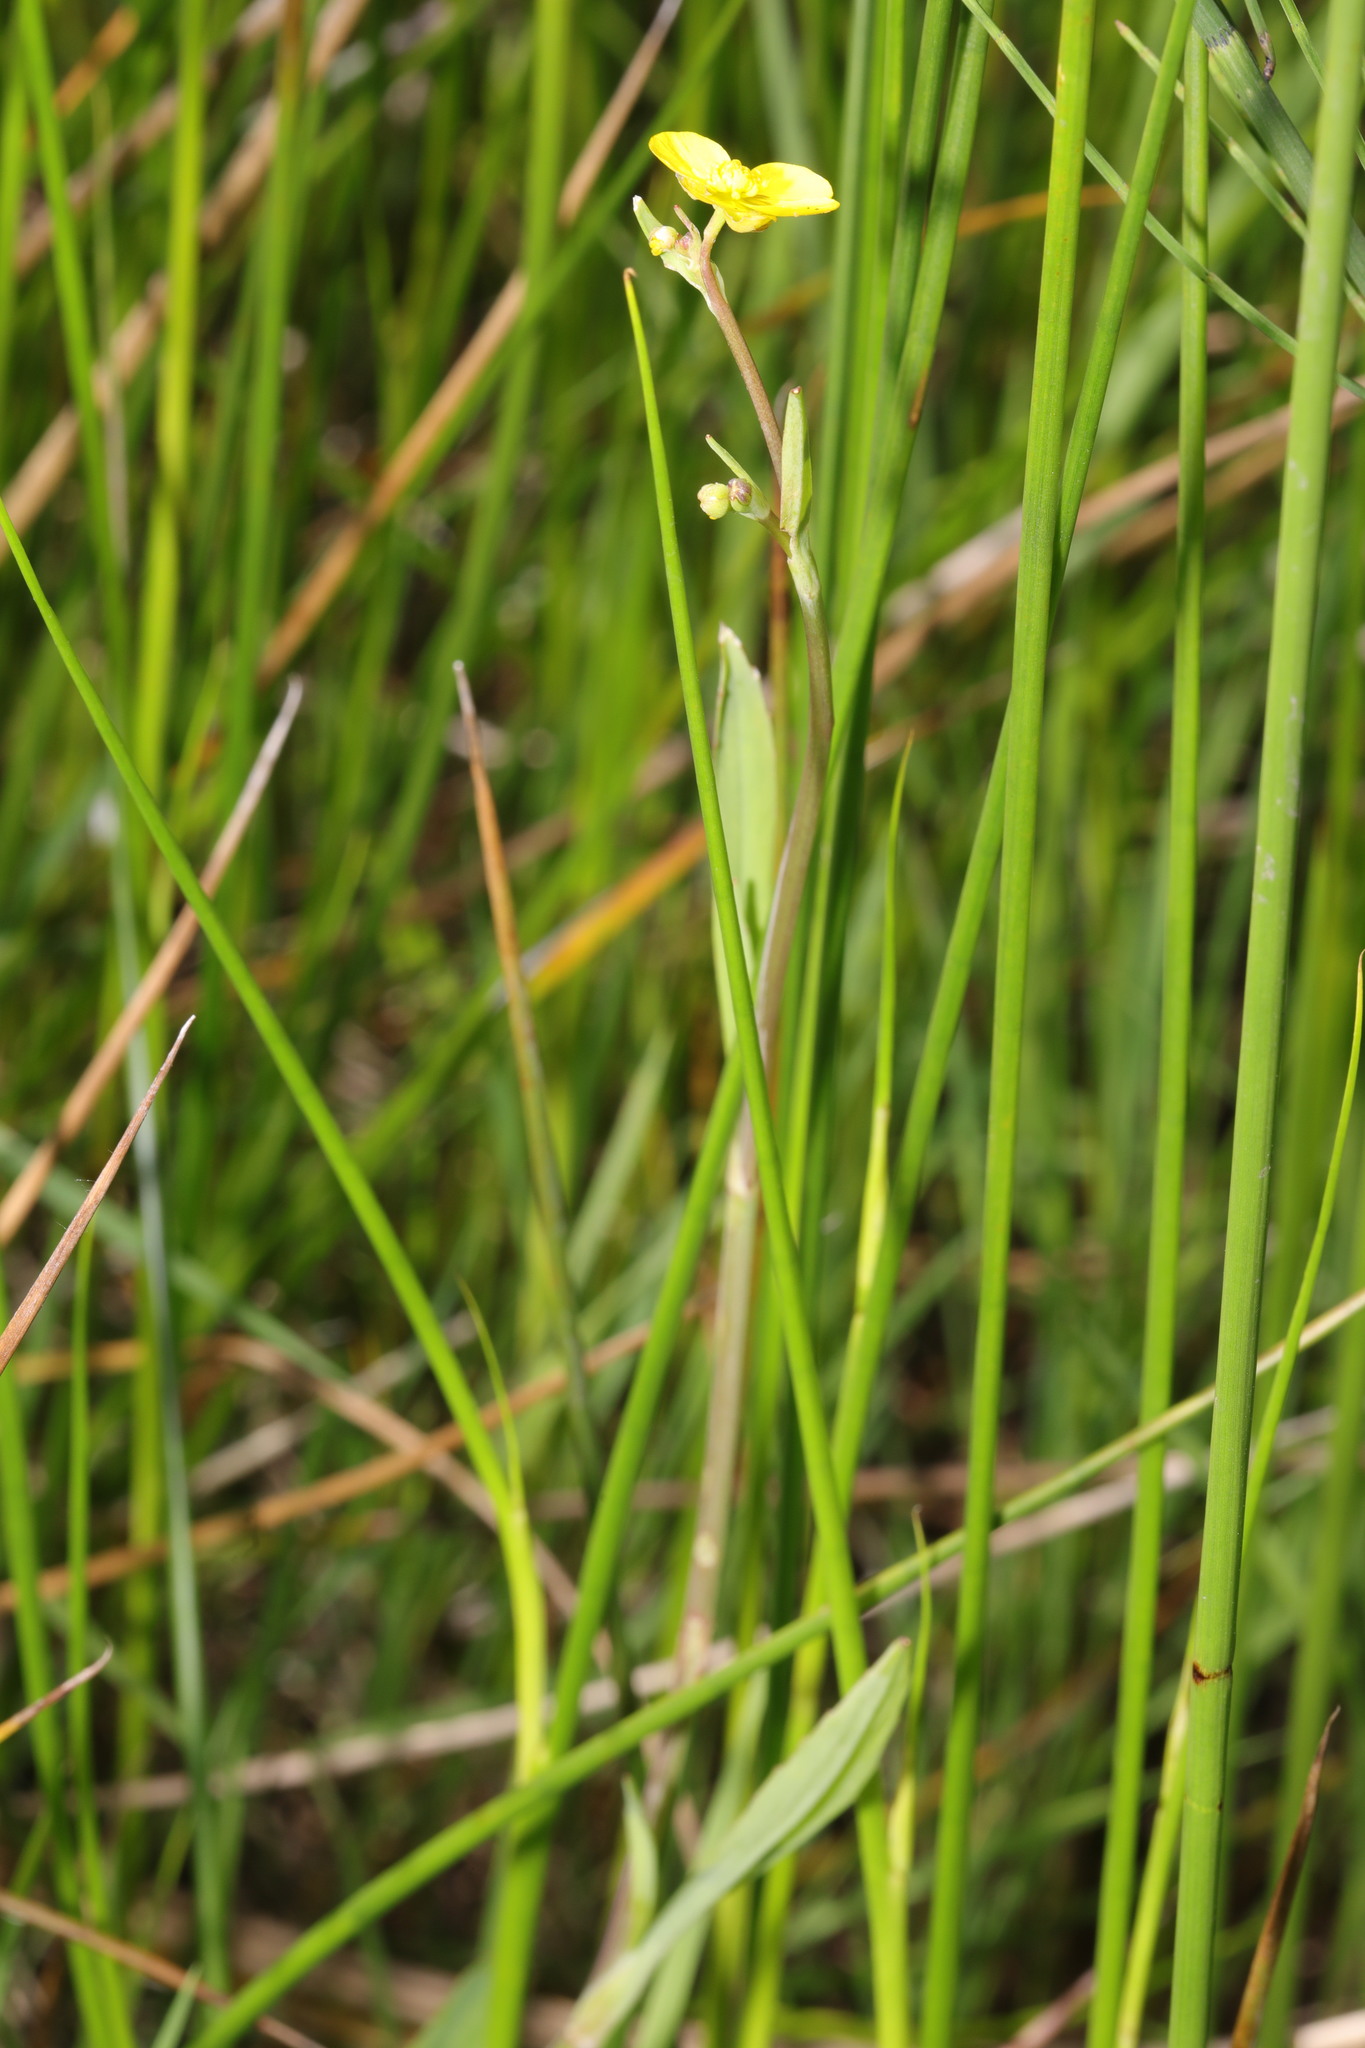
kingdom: Plantae
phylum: Tracheophyta
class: Magnoliopsida
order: Ranunculales
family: Ranunculaceae
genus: Ranunculus
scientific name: Ranunculus flammula
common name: Lesser spearwort
